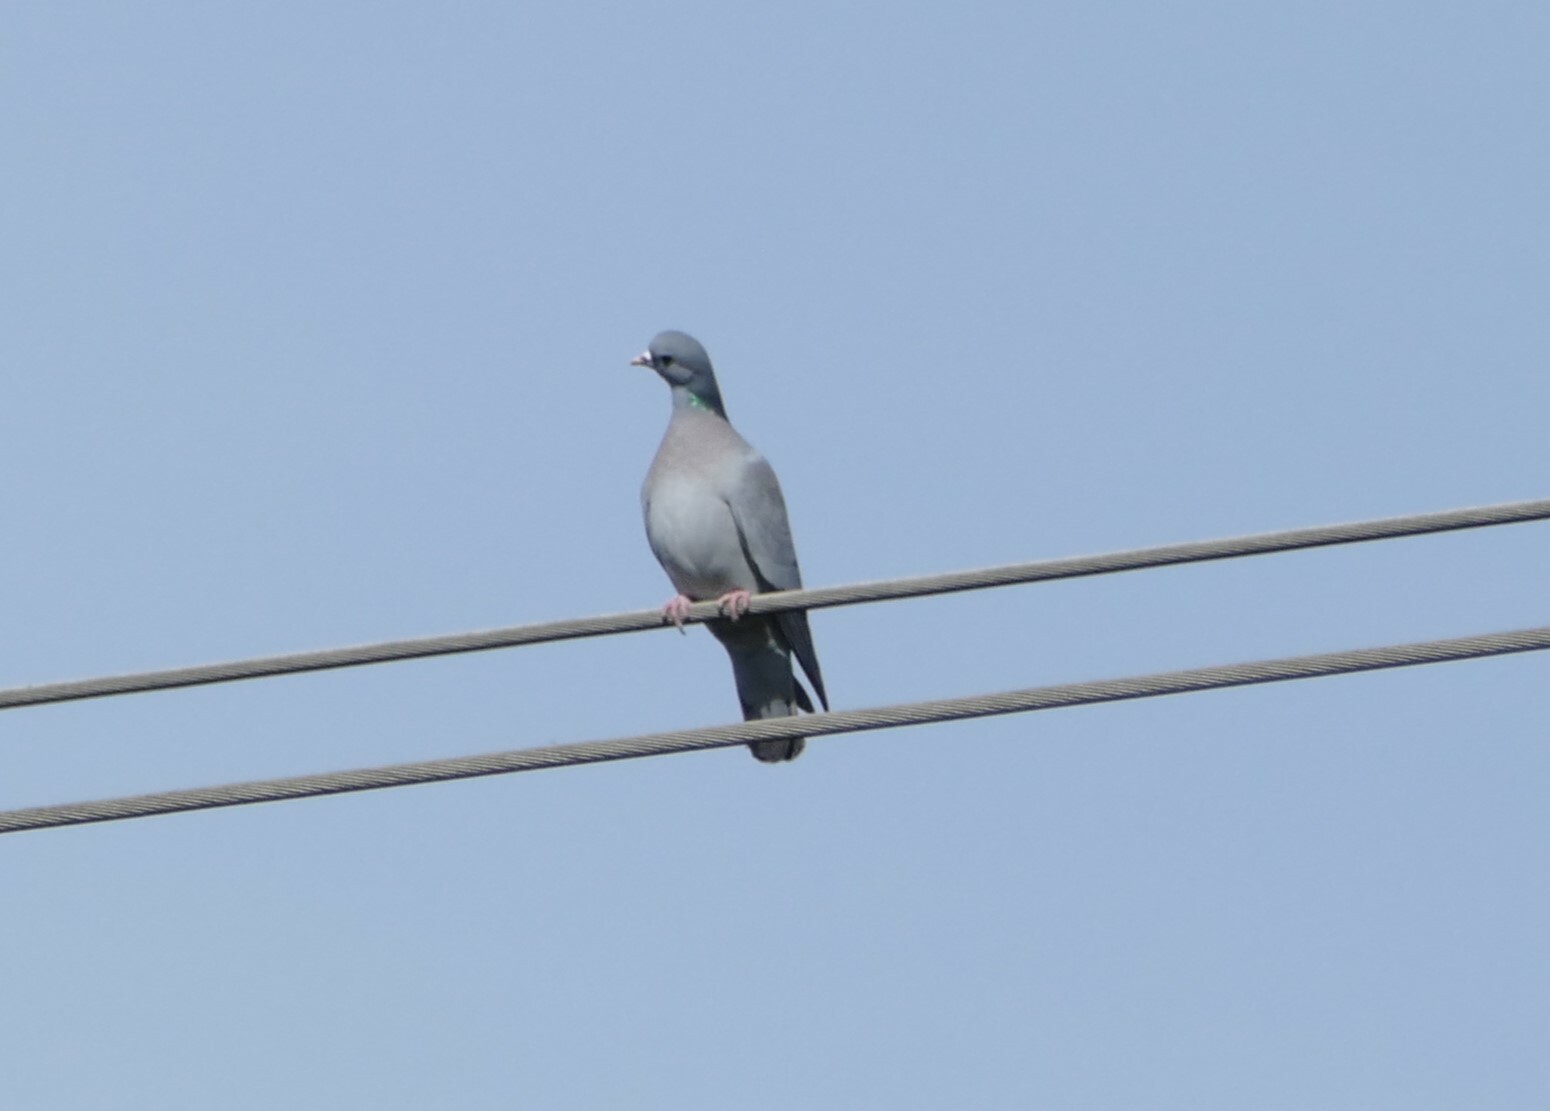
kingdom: Animalia
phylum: Chordata
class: Aves
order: Columbiformes
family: Columbidae
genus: Columba
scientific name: Columba oenas
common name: Stock dove
